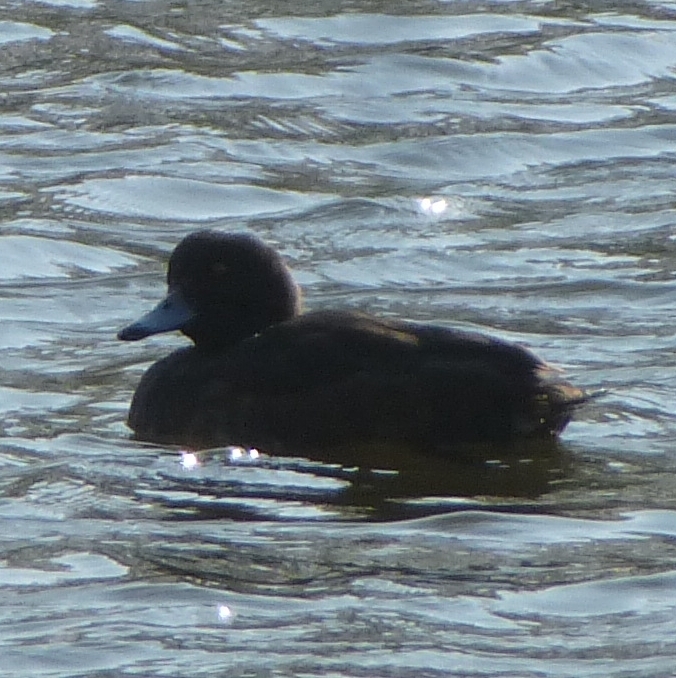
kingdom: Animalia
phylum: Chordata
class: Aves
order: Anseriformes
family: Anatidae
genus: Aythya
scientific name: Aythya fuligula
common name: Tufted duck
